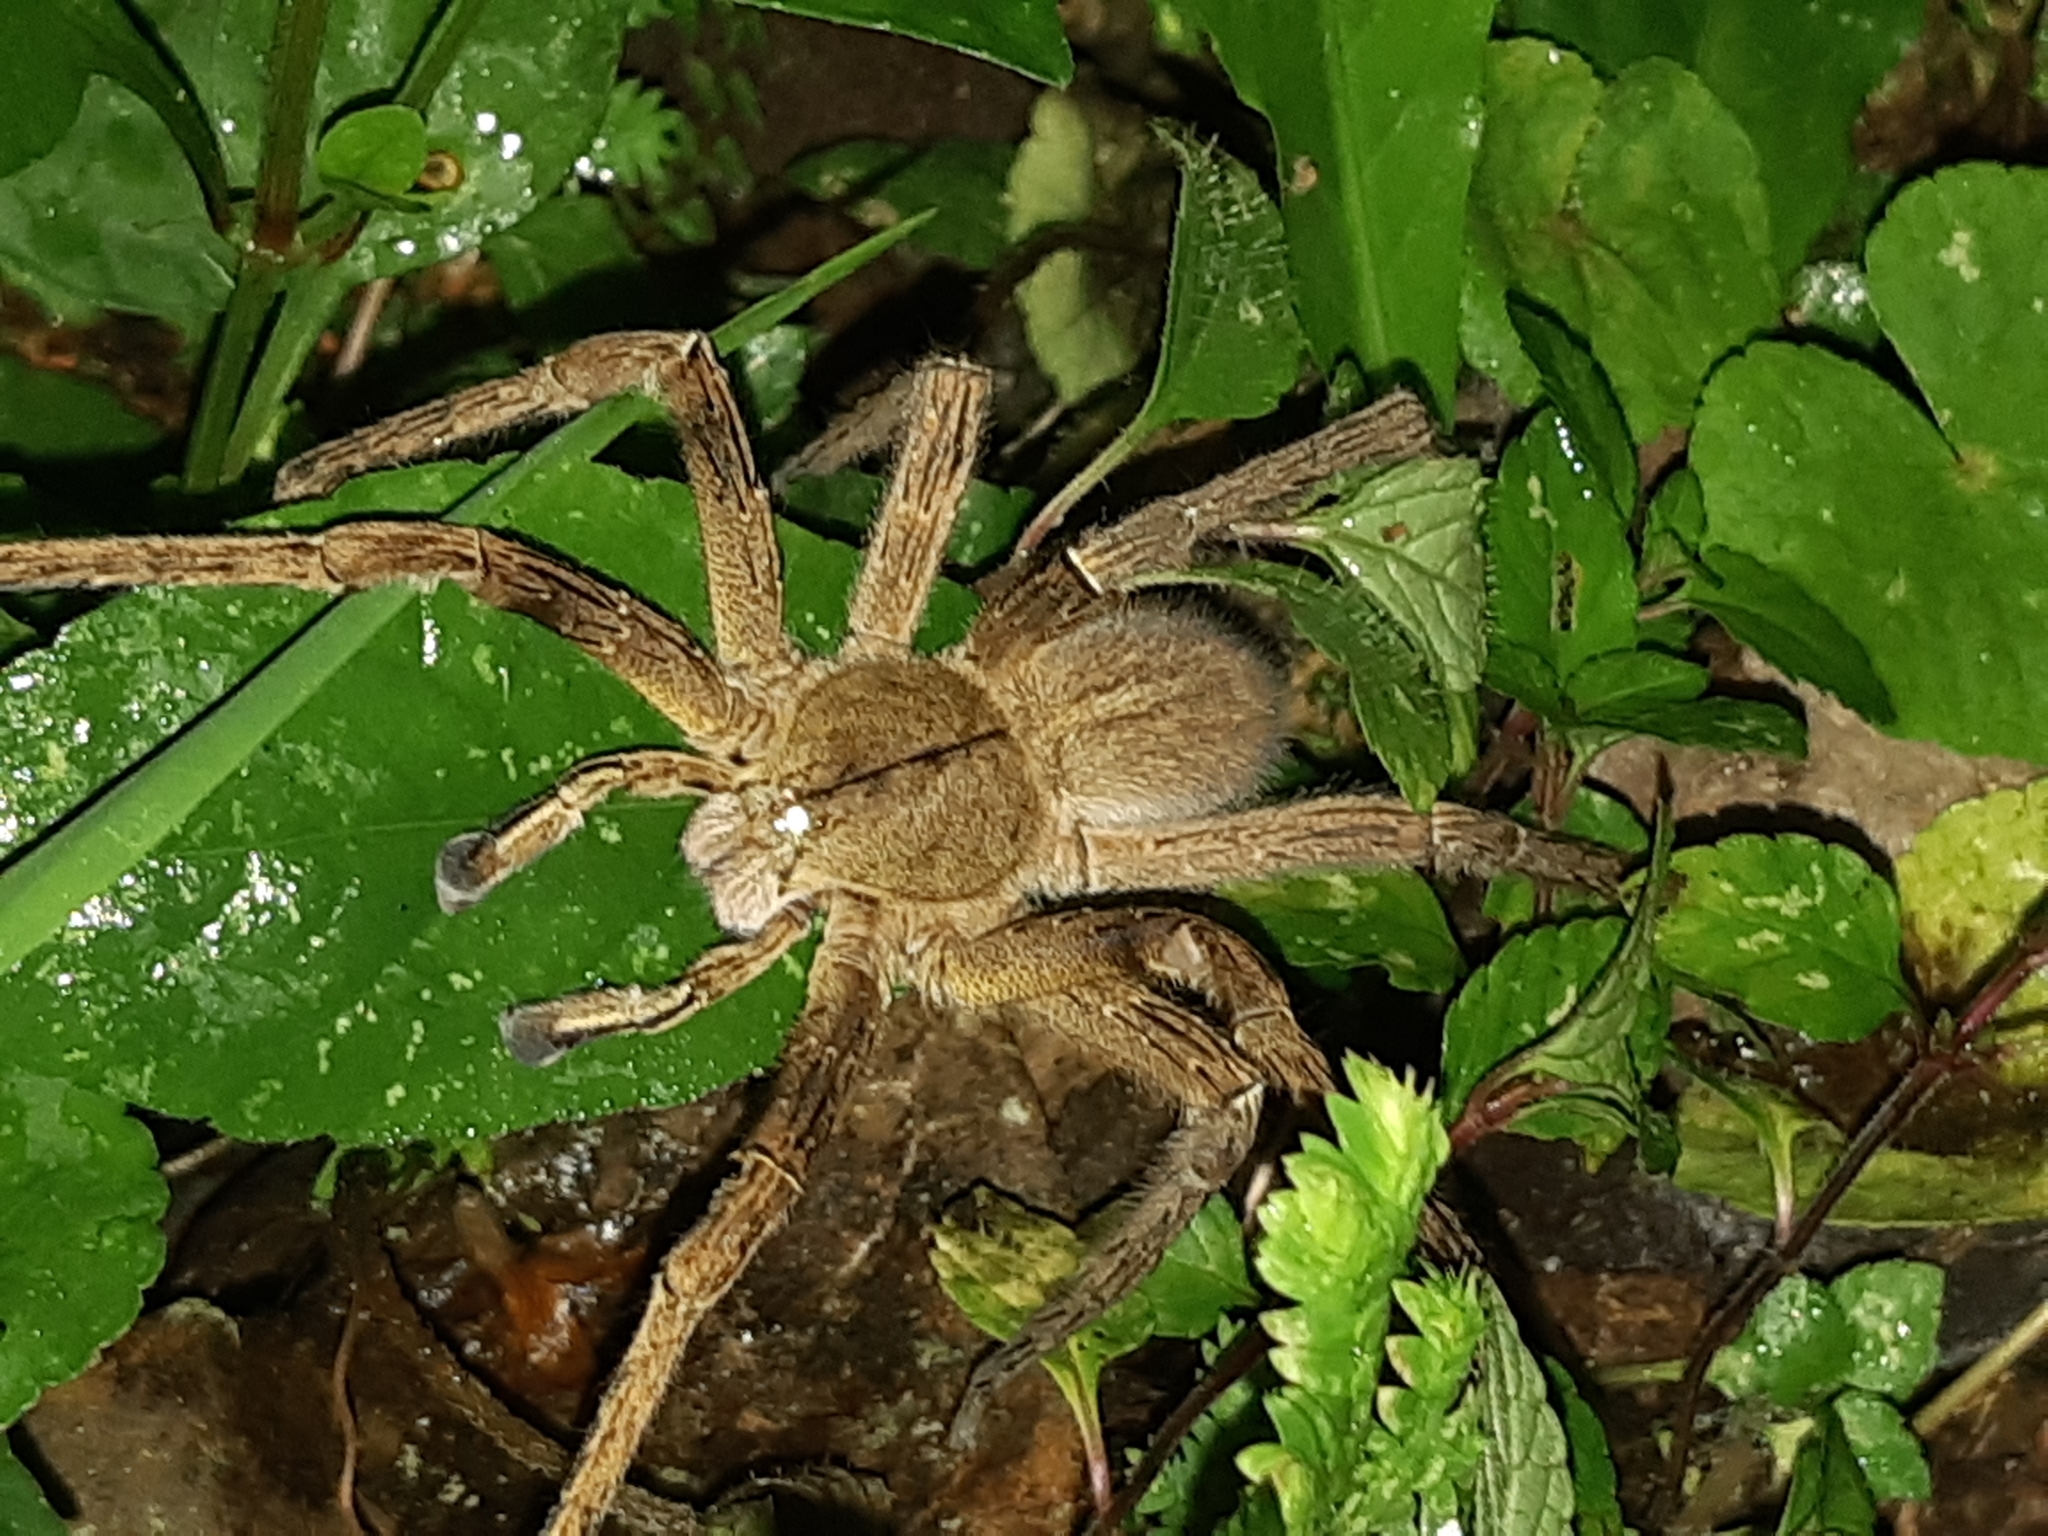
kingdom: Animalia
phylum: Arthropoda
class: Arachnida
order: Araneae
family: Ctenidae
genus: Phoneutria
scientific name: Phoneutria depilata
